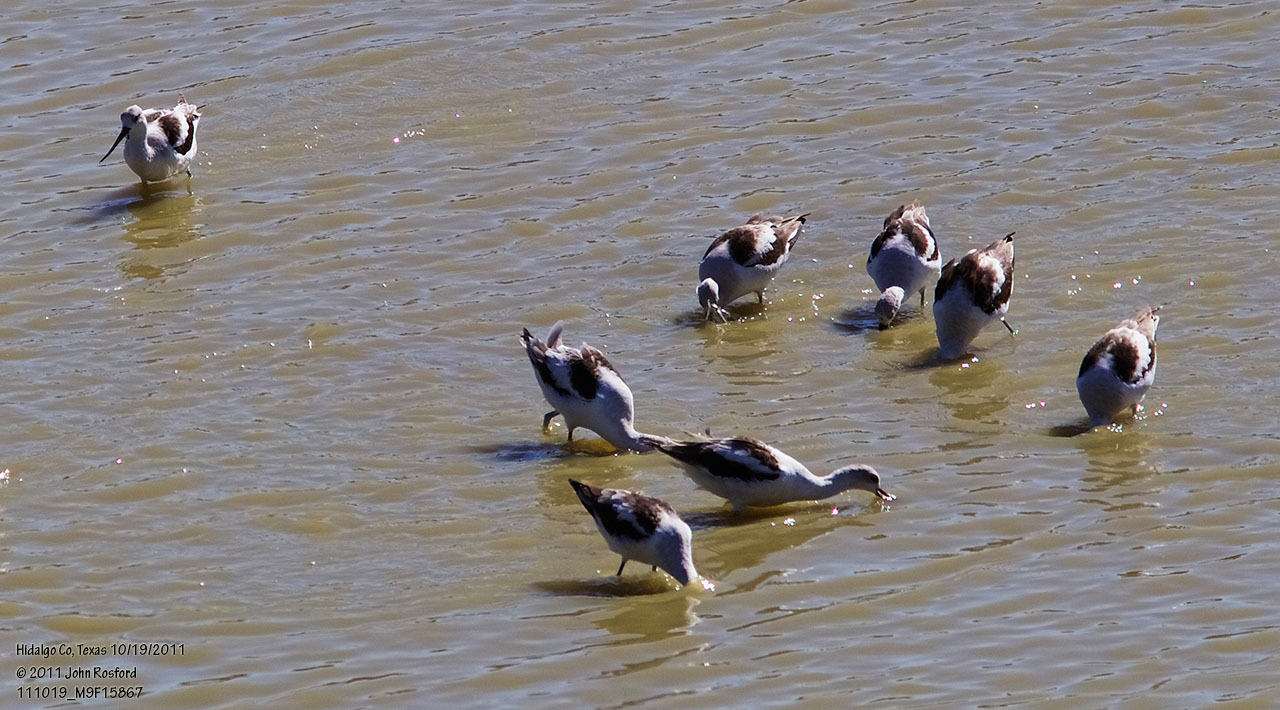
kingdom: Animalia
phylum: Chordata
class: Aves
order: Charadriiformes
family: Recurvirostridae
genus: Recurvirostra
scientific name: Recurvirostra americana
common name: American avocet
